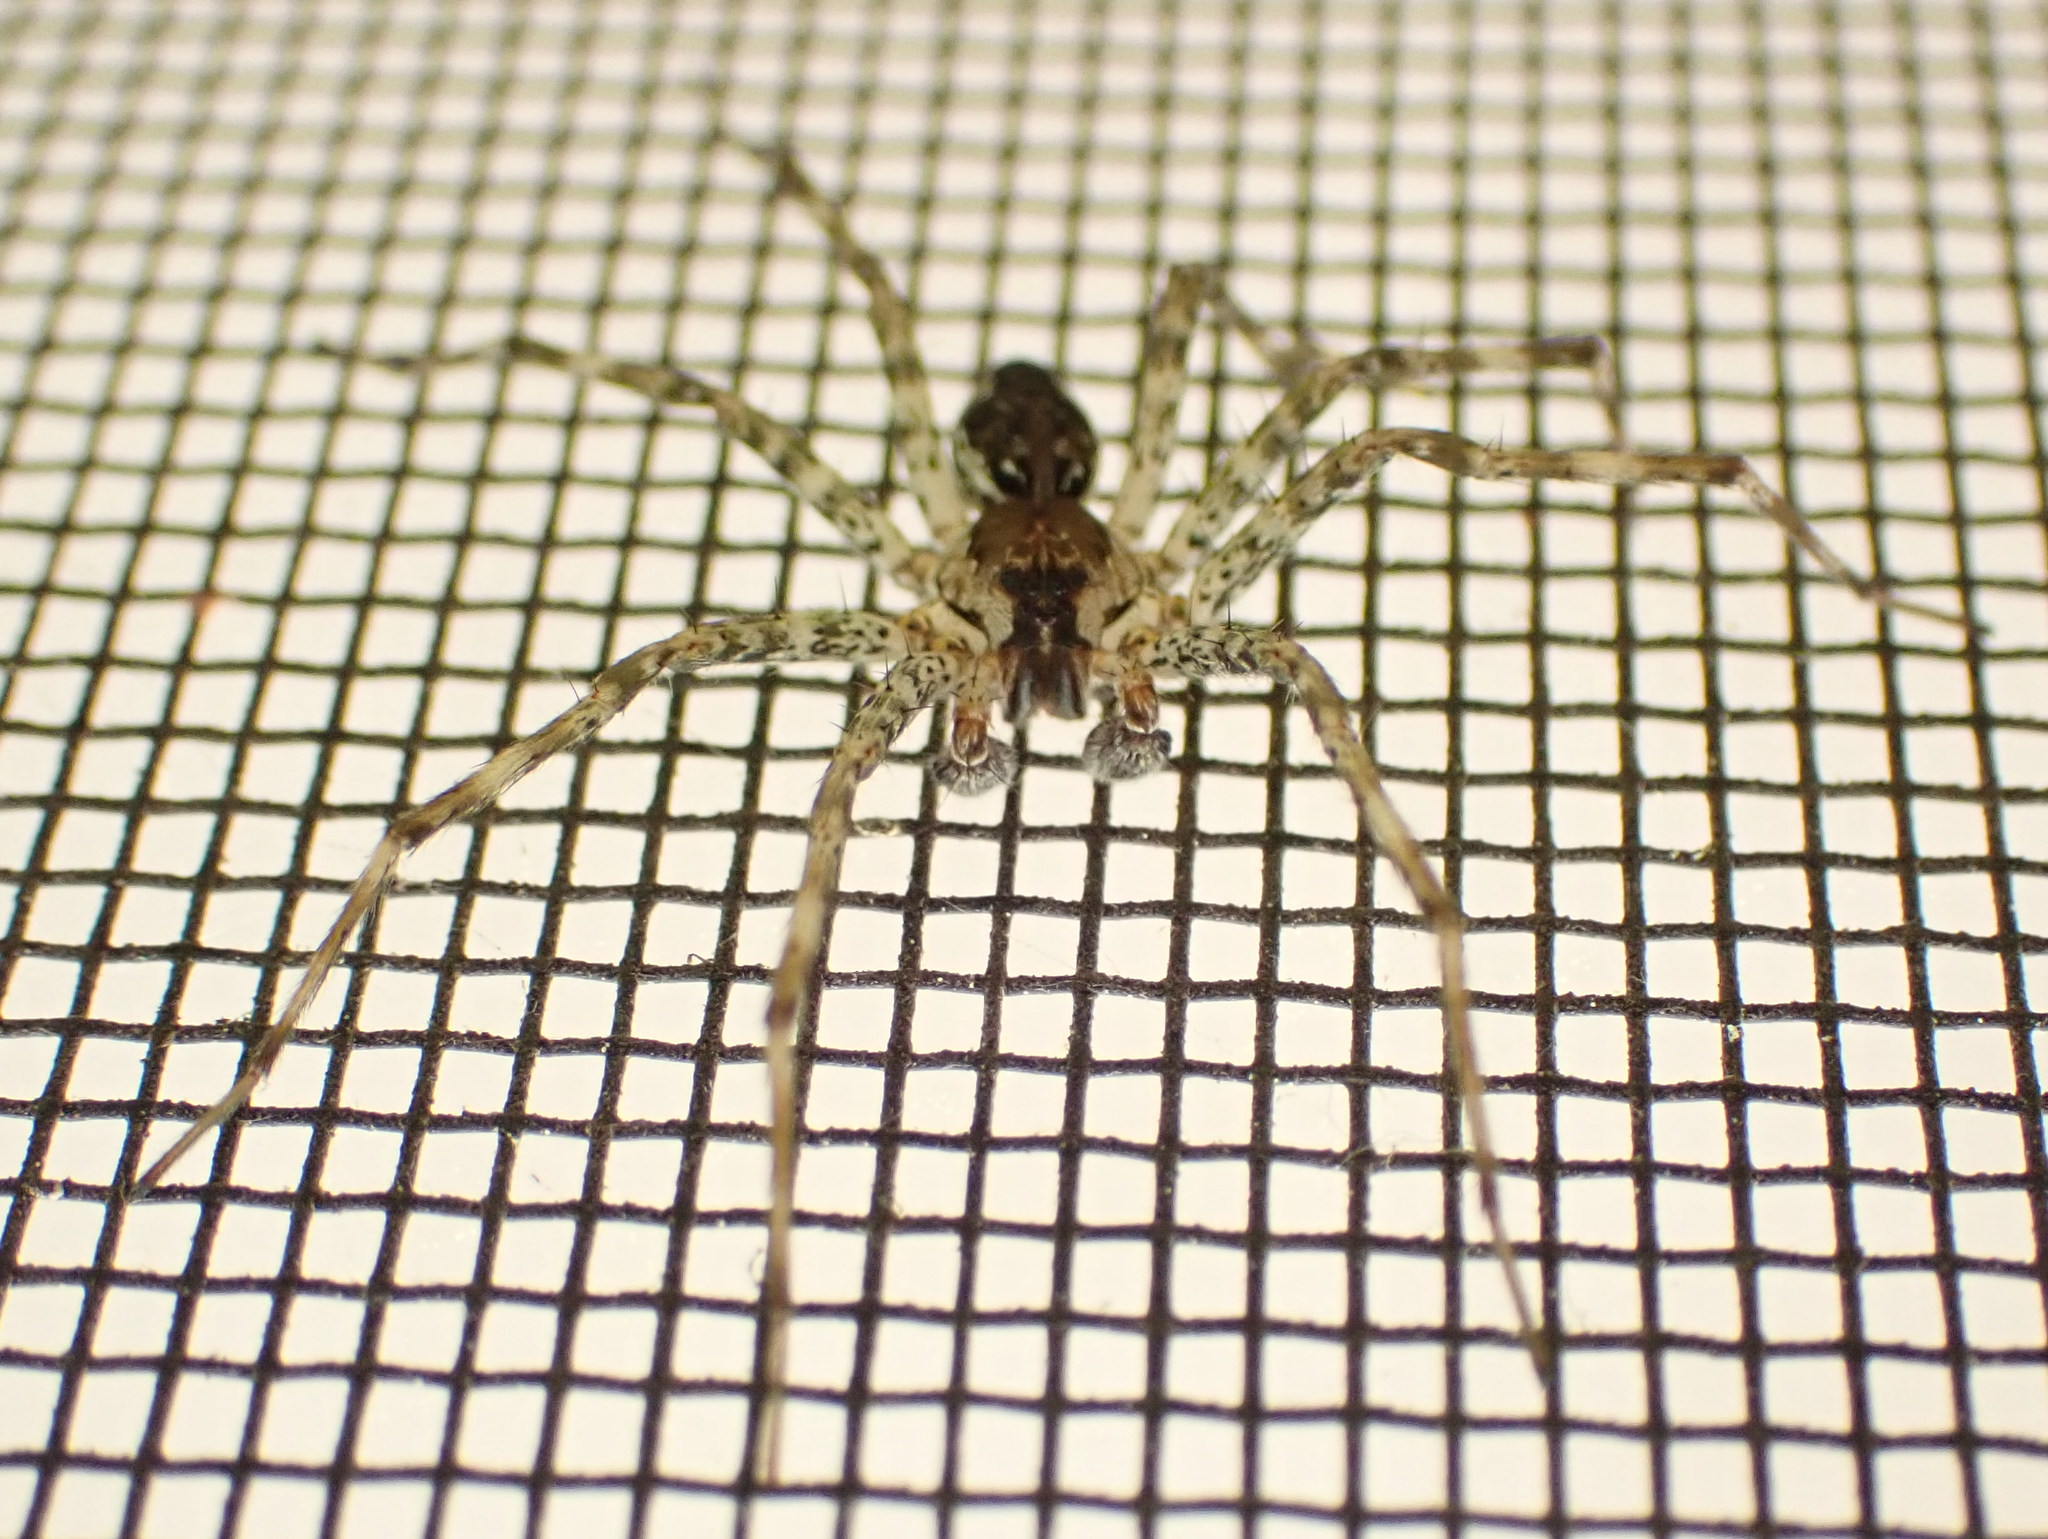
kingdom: Animalia
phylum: Arthropoda
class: Arachnida
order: Araneae
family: Pisauridae
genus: Dolomedes
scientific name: Dolomedes tenebrosus
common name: Dark fishing spider
